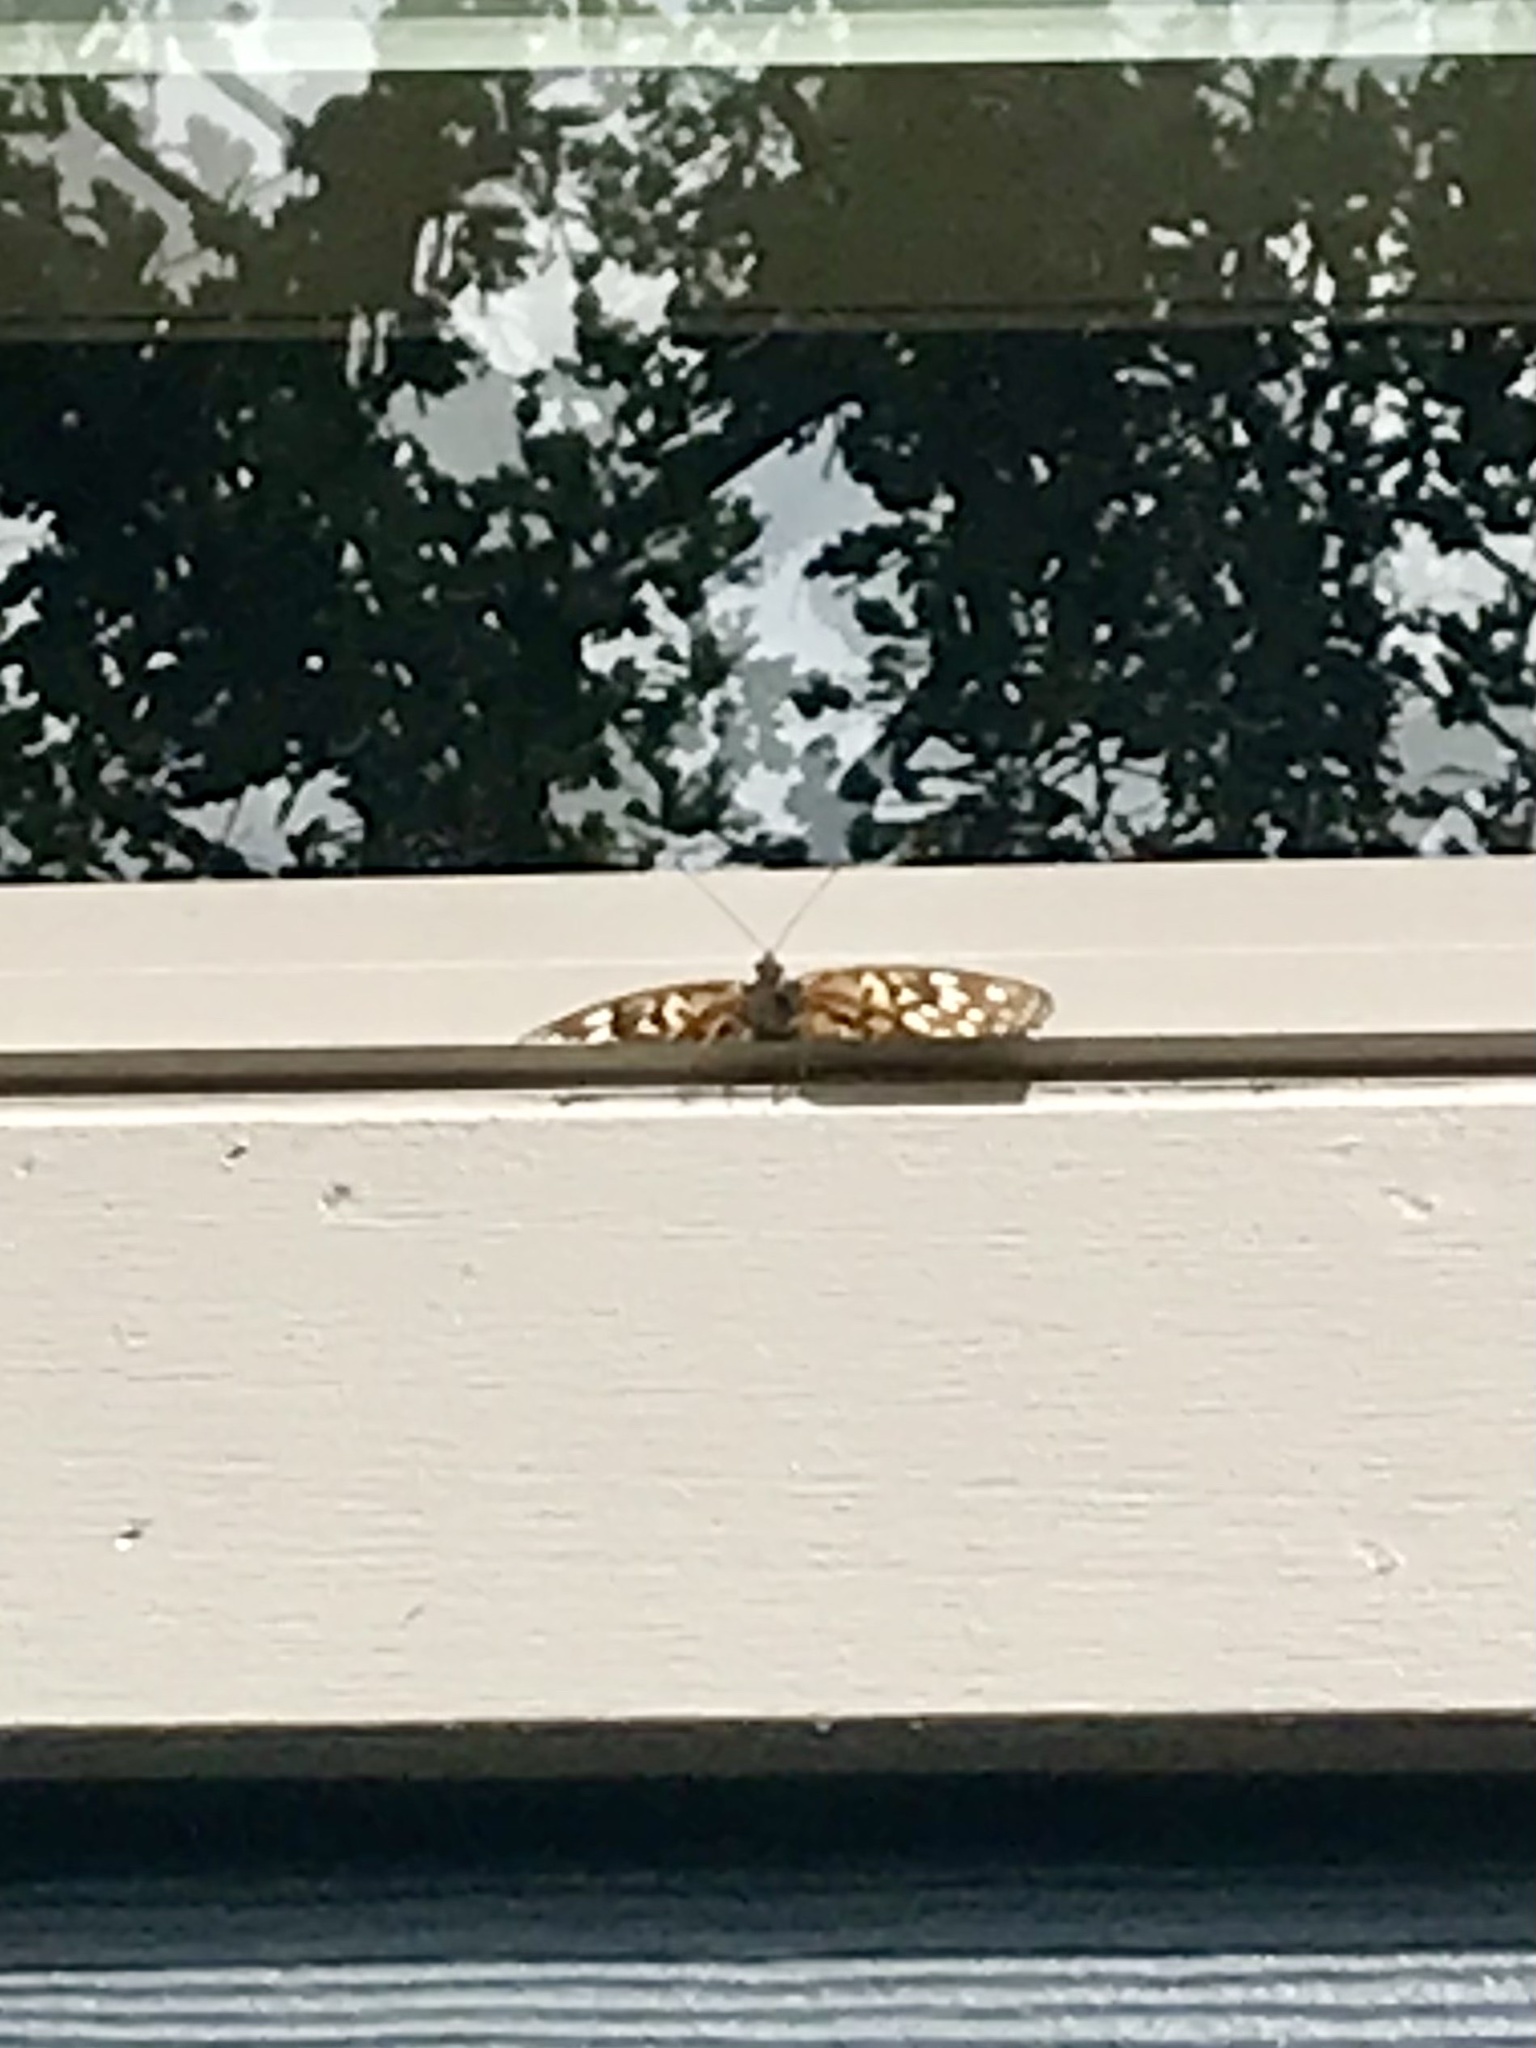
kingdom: Animalia
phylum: Arthropoda
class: Insecta
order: Lepidoptera
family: Nymphalidae
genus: Asterocampa
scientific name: Asterocampa celtis
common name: Hackberry emperor
